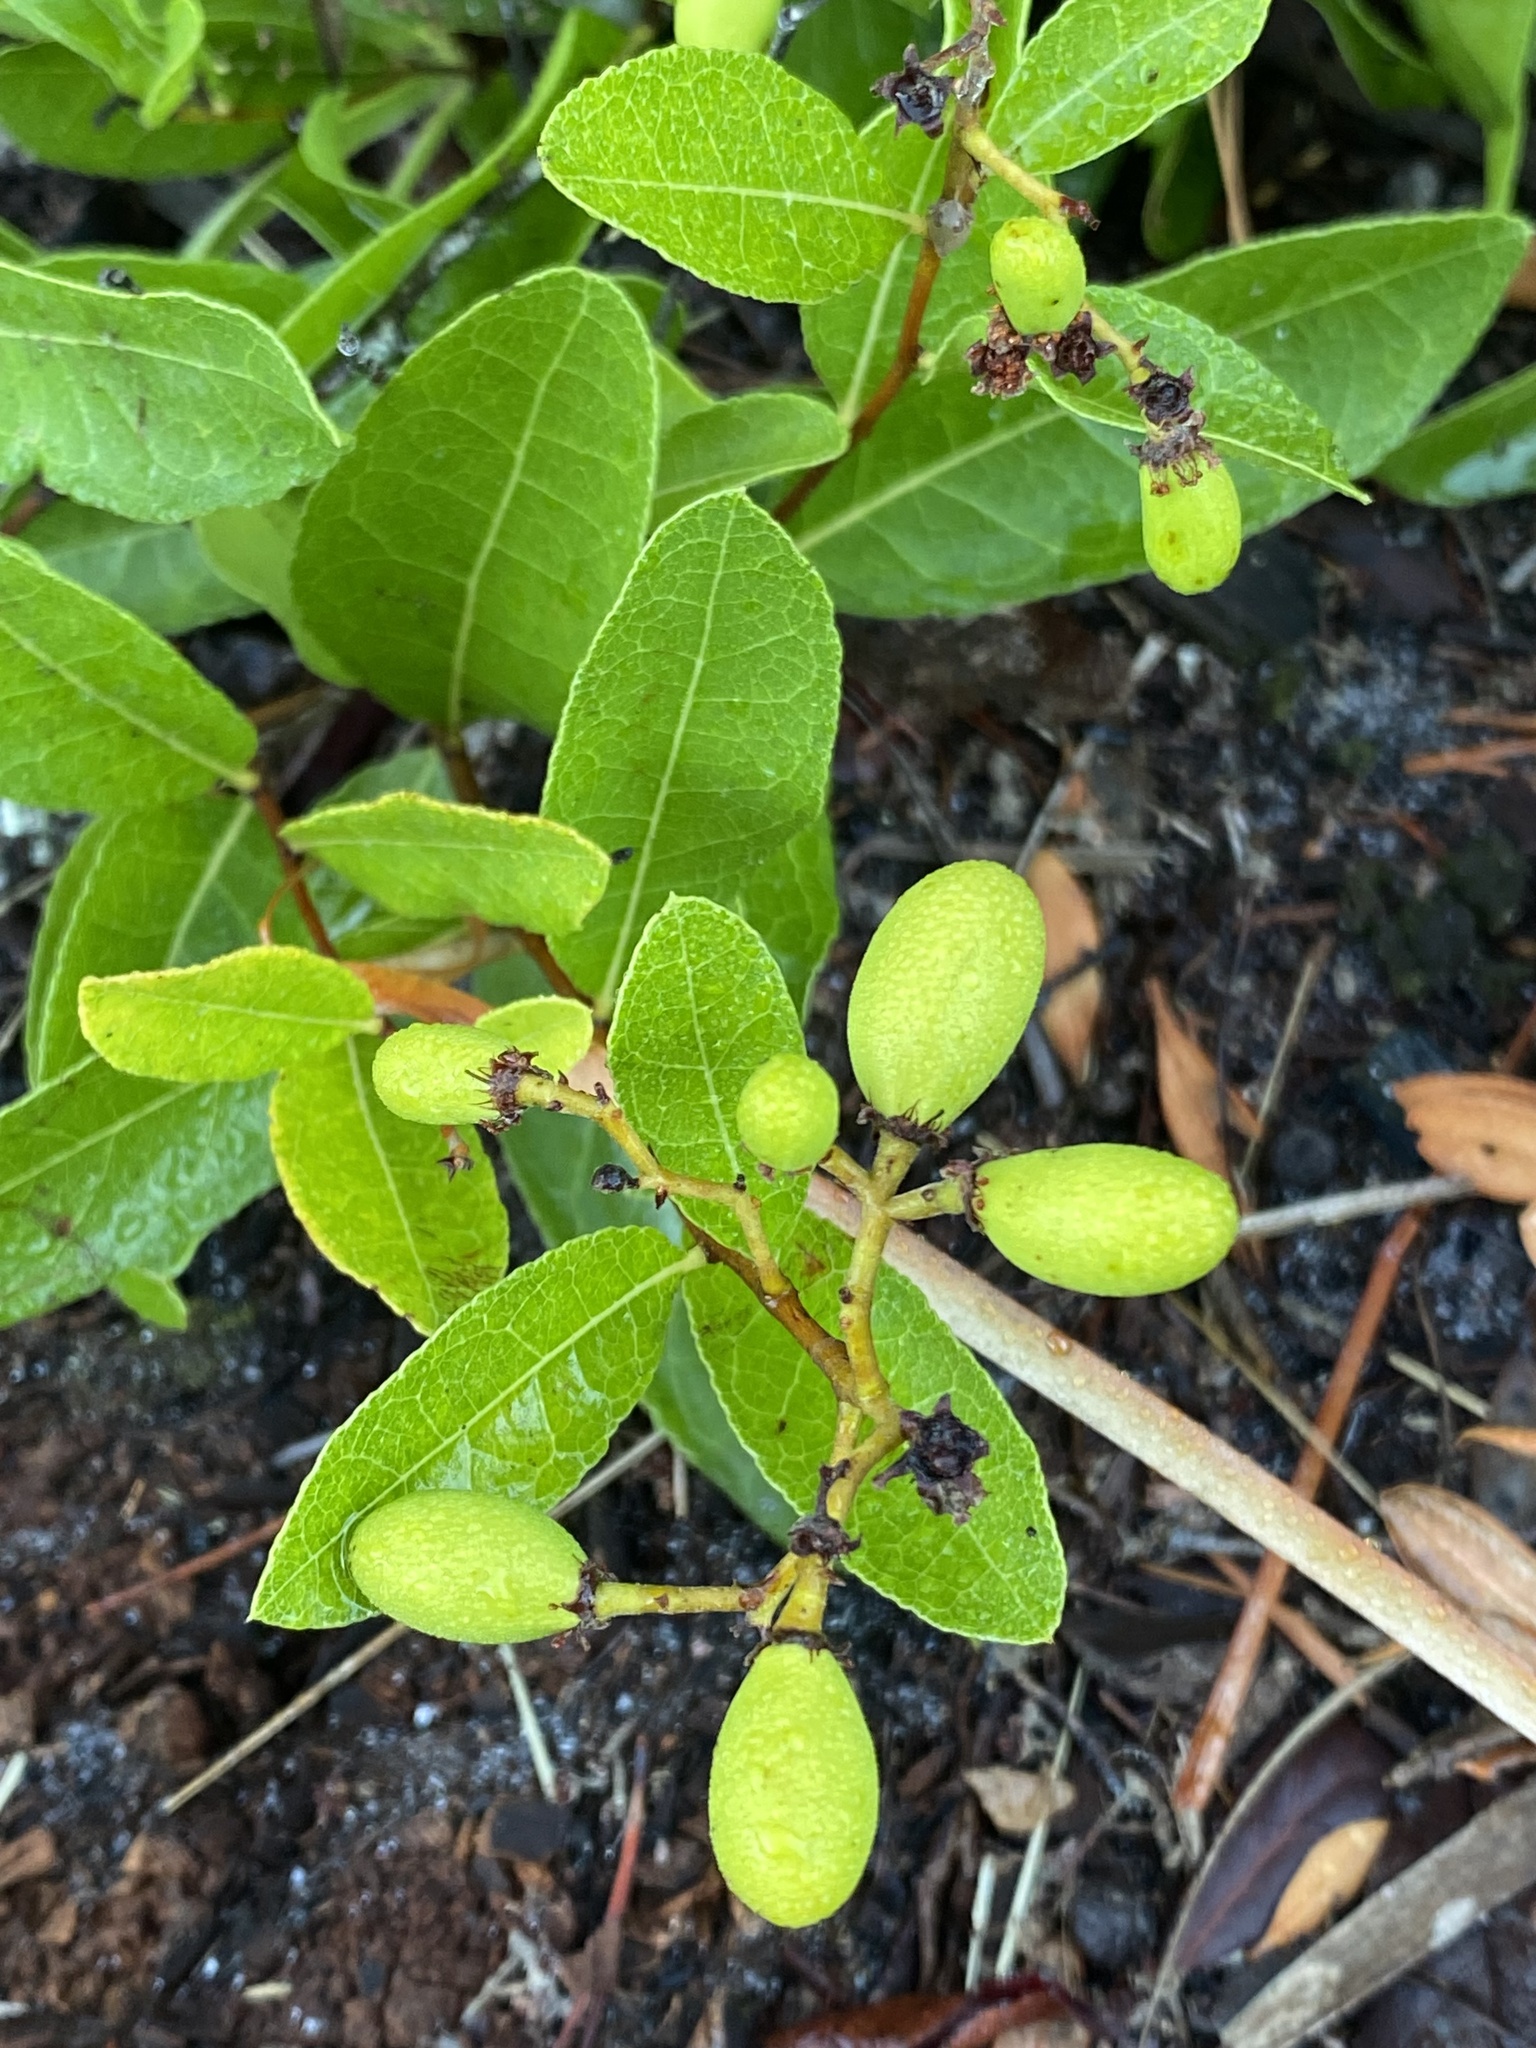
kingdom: Plantae
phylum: Tracheophyta
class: Magnoliopsida
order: Malpighiales
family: Chrysobalanaceae
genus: Geobalanus
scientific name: Geobalanus oblongifolius
